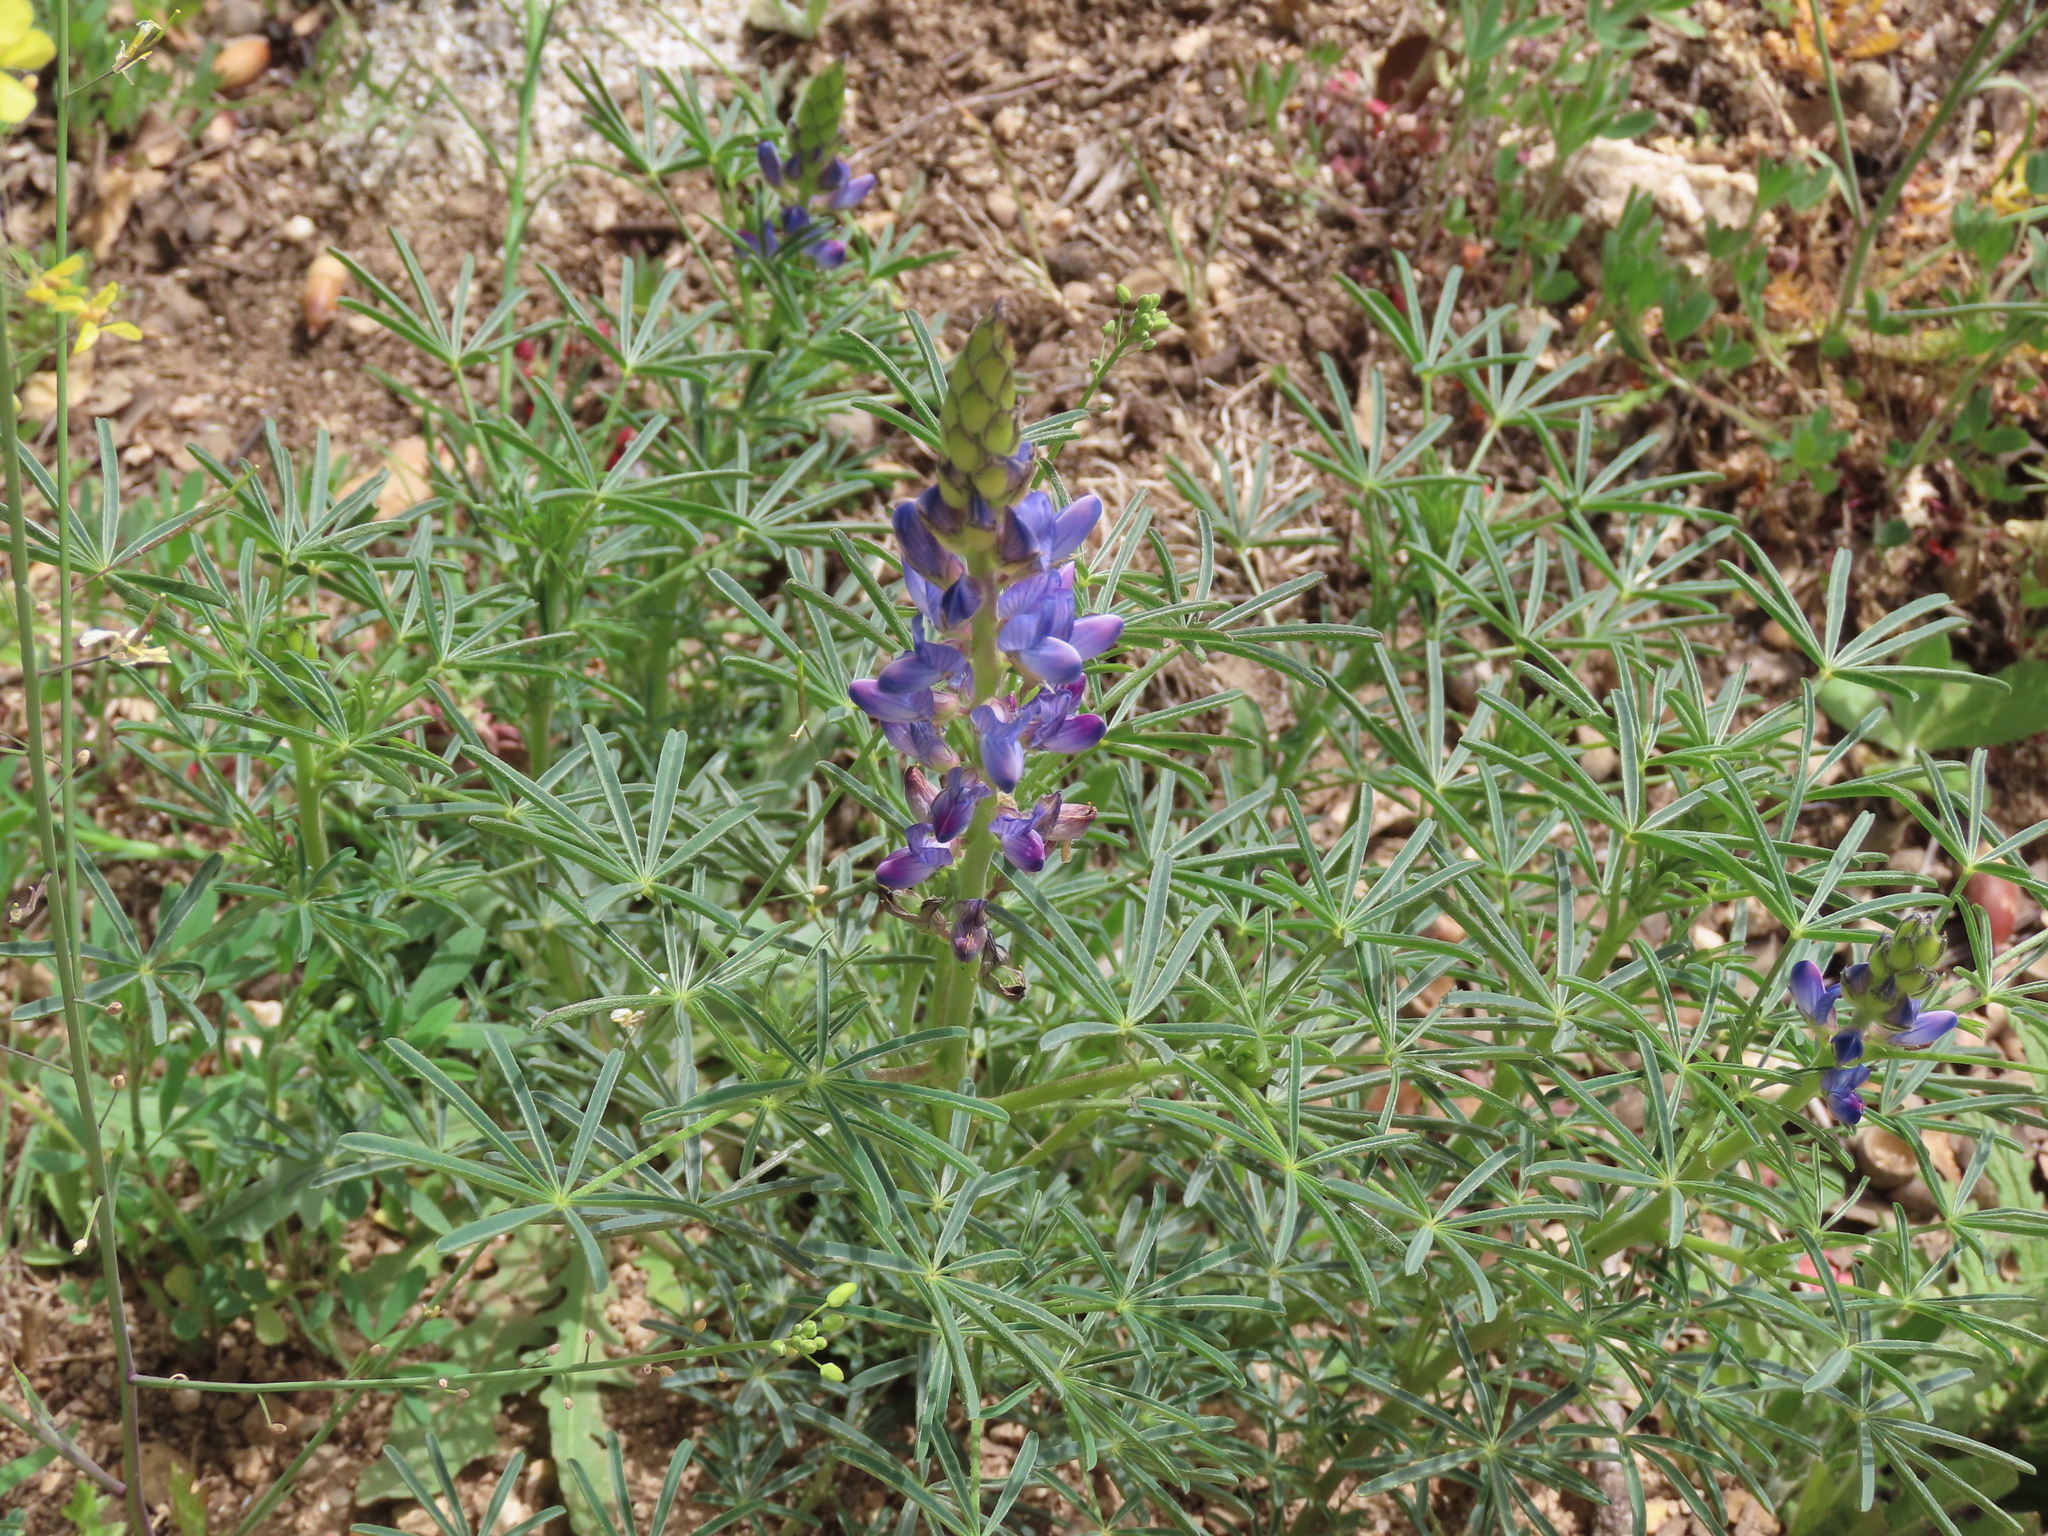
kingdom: Plantae
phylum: Tracheophyta
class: Magnoliopsida
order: Fabales
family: Fabaceae
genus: Lupinus
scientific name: Lupinus angustifolius
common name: Narrow-leaved lupin
